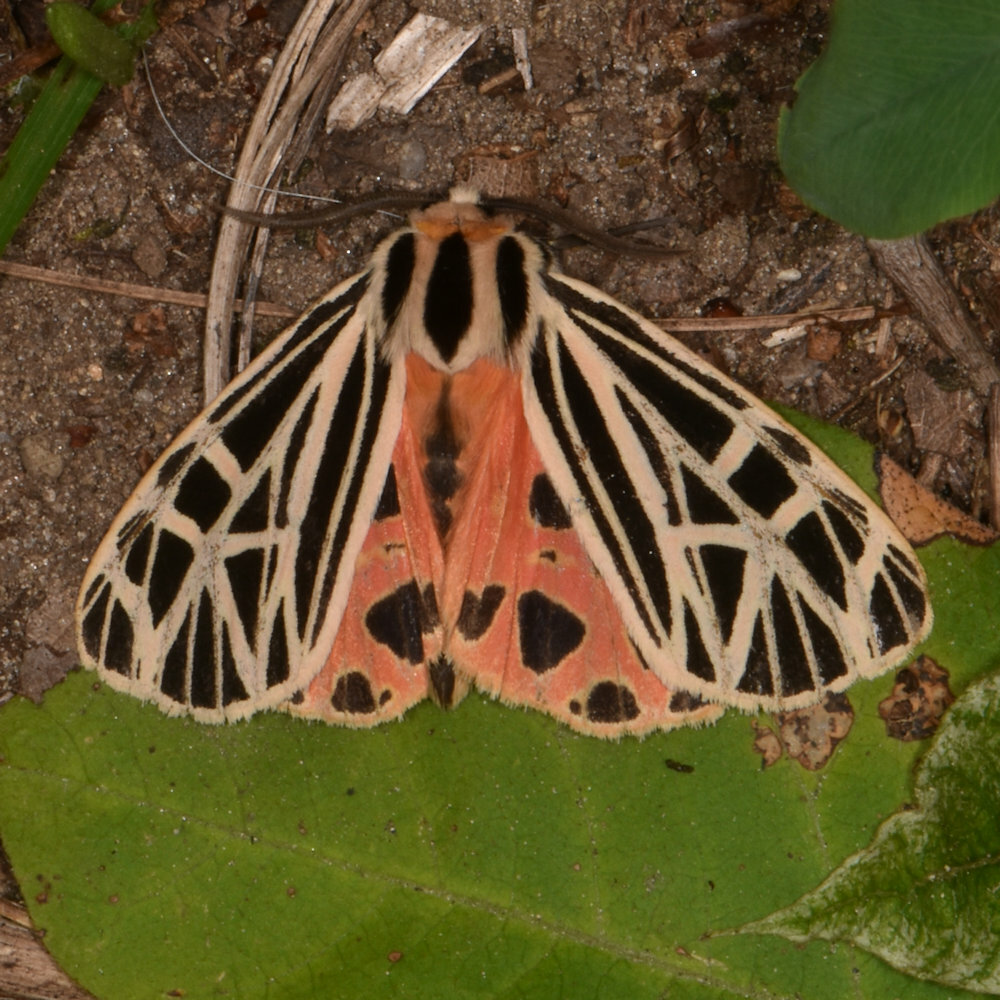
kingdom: Animalia
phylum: Arthropoda
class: Insecta
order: Lepidoptera
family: Erebidae
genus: Grammia
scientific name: Grammia virgo
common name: Virgin tiger moth
